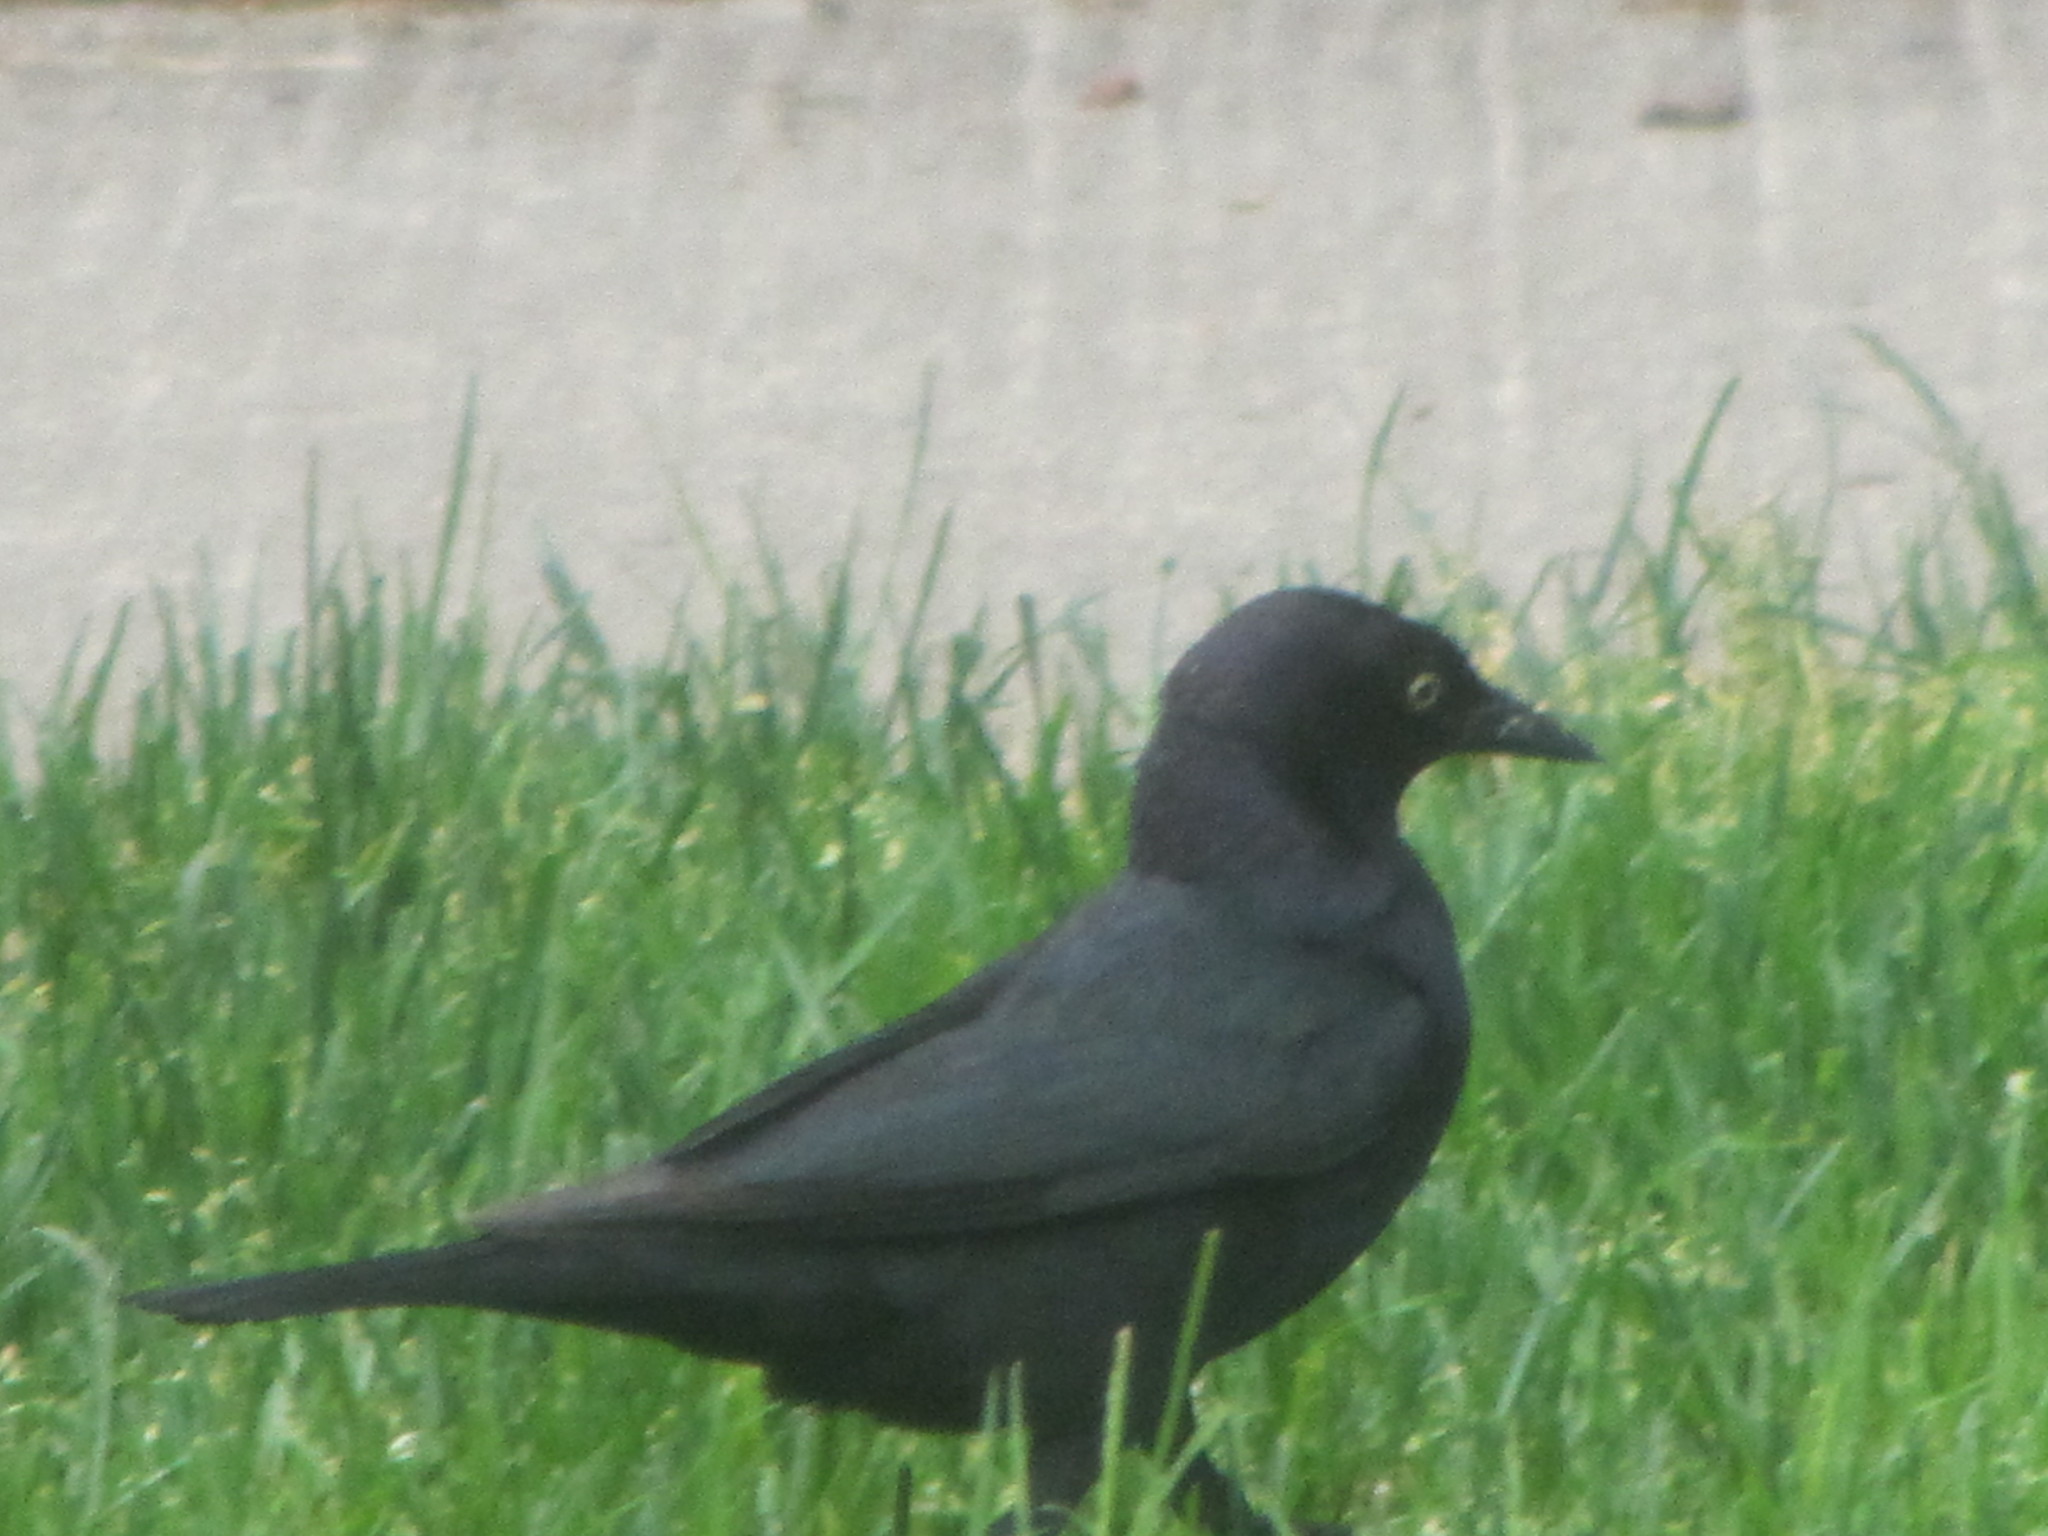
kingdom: Animalia
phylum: Chordata
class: Aves
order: Passeriformes
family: Icteridae
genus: Euphagus
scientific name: Euphagus cyanocephalus
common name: Brewer's blackbird
